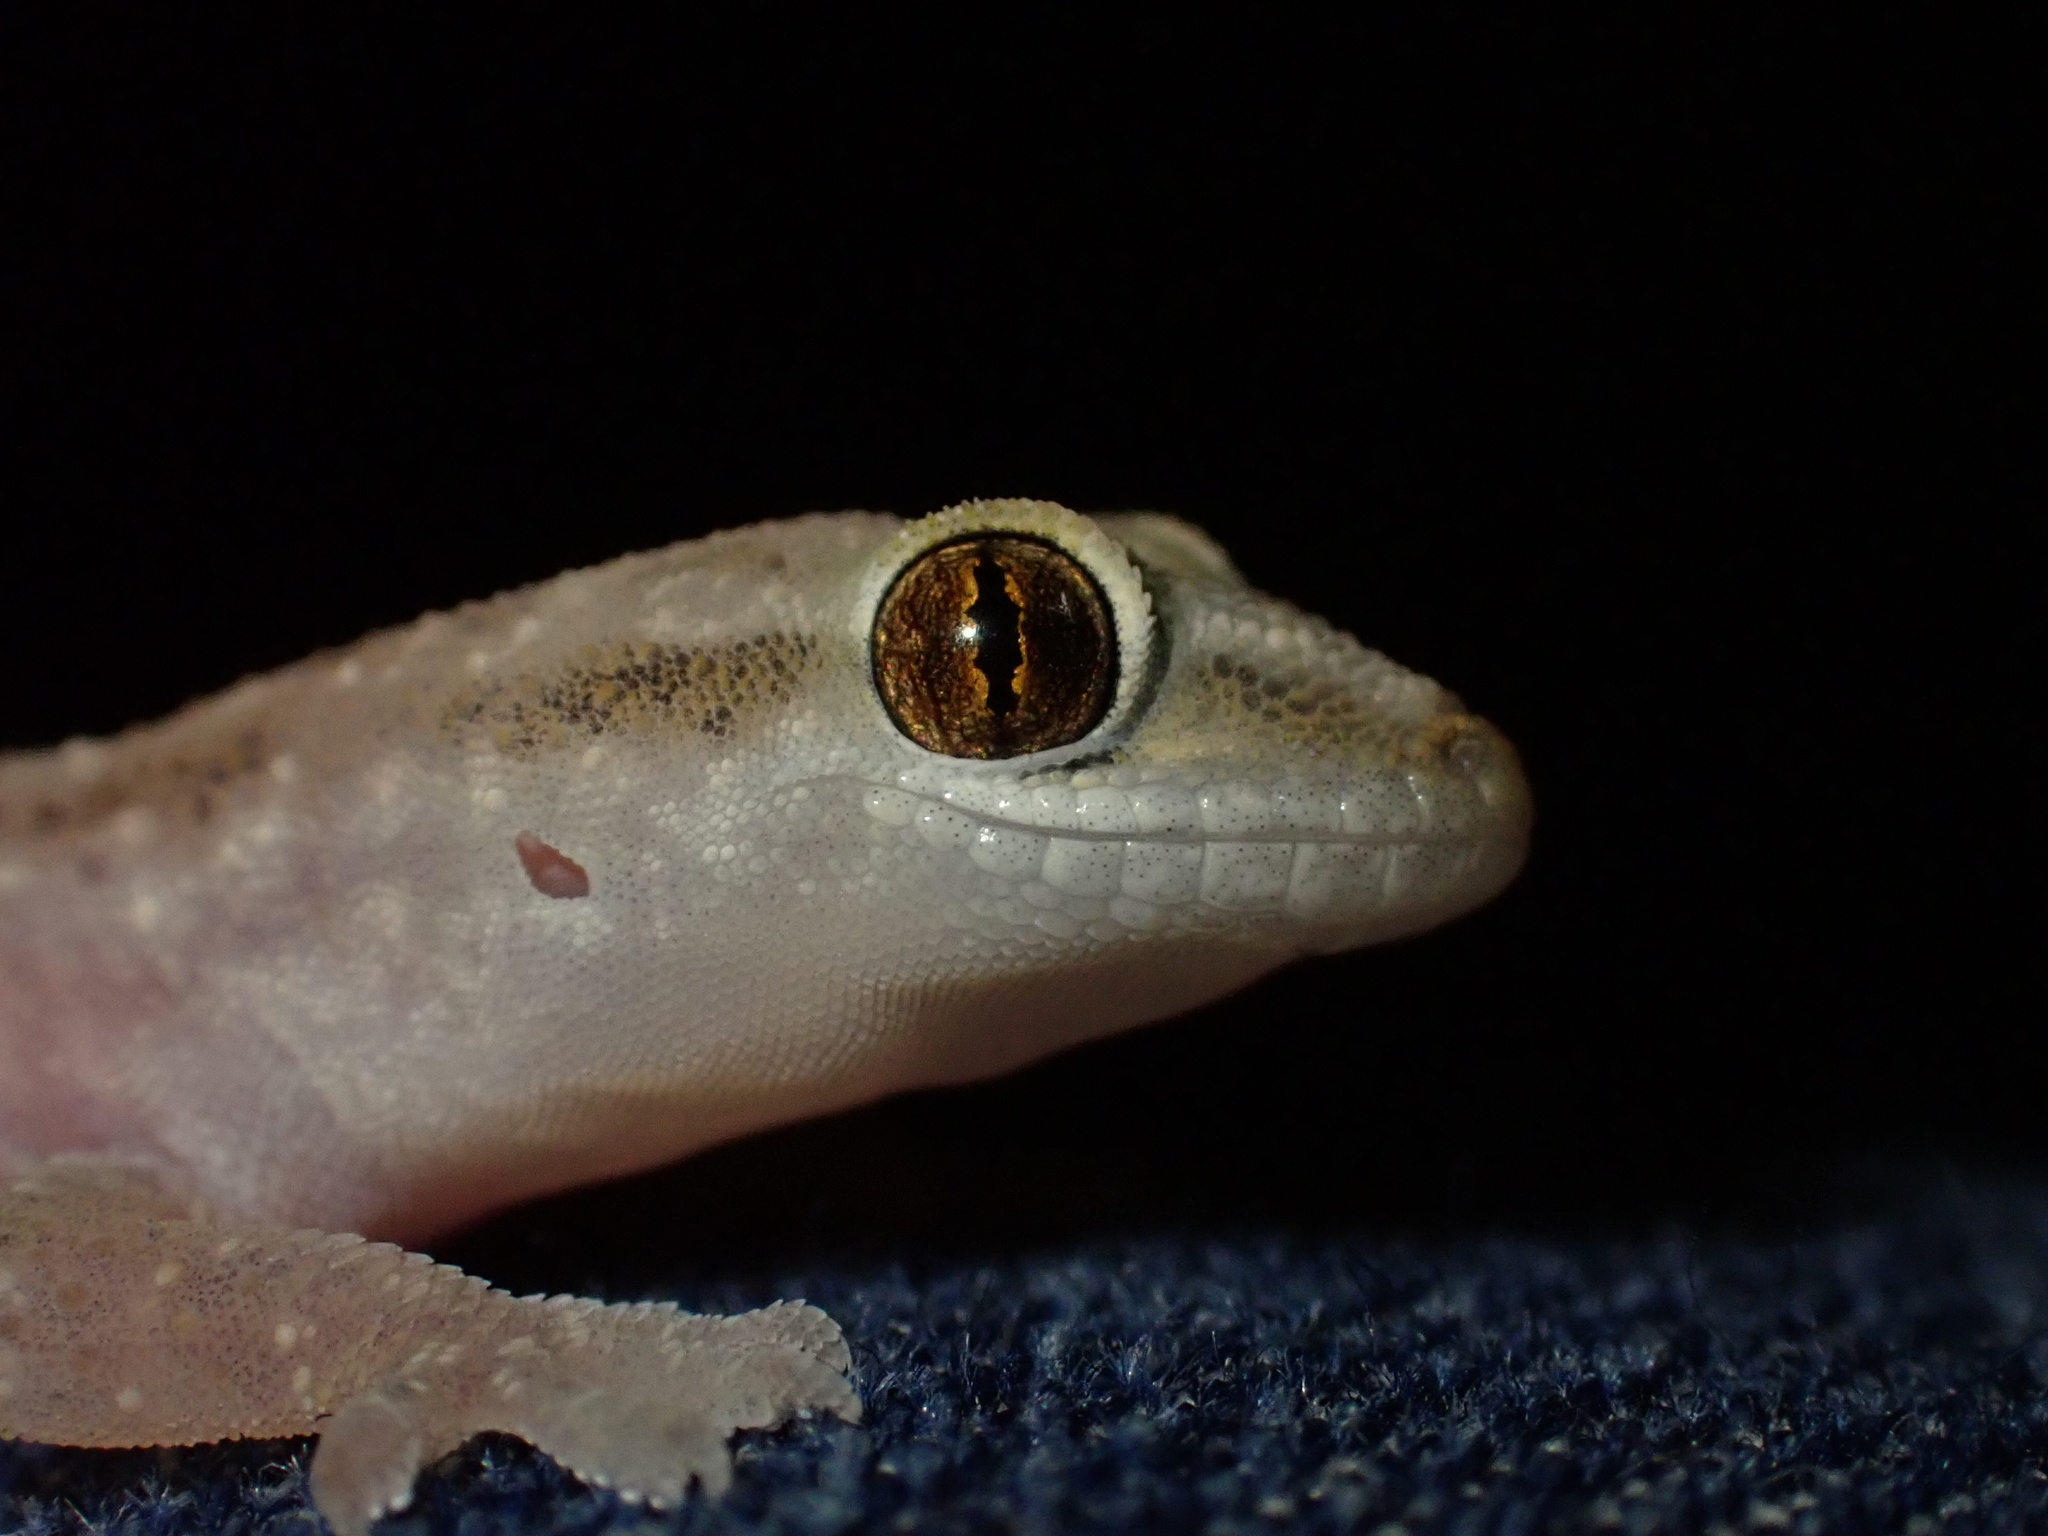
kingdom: Animalia
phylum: Chordata
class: Squamata
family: Gekkonidae
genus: Hemidactylus
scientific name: Hemidactylus robustus
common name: Heyden’s gecko
